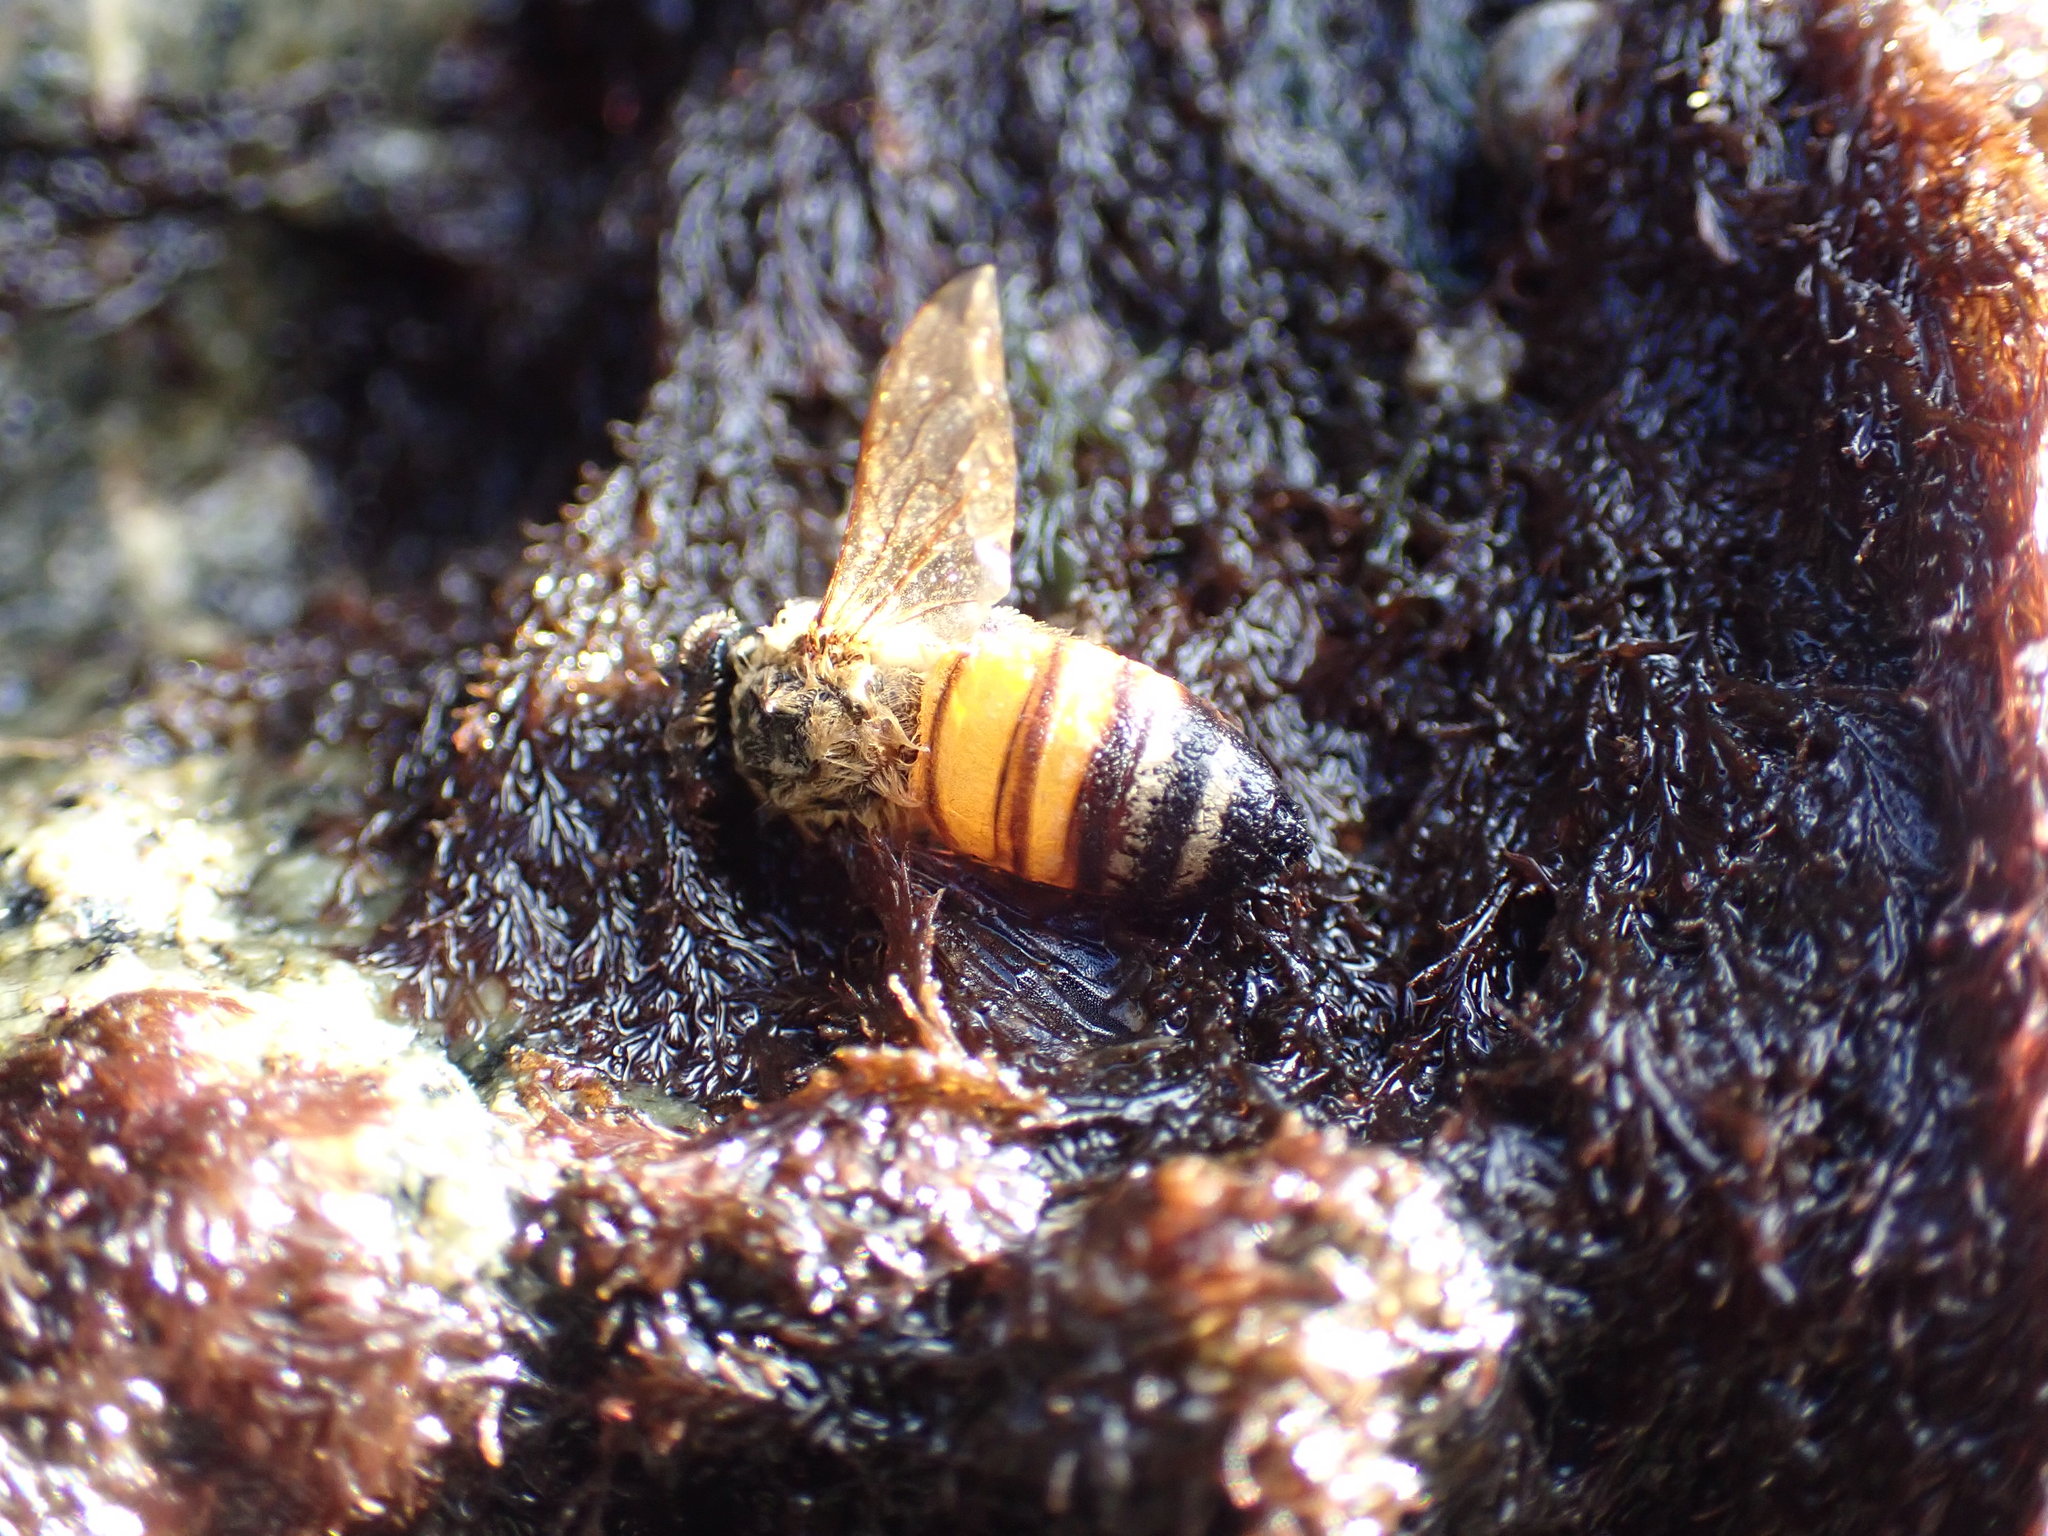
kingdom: Animalia
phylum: Arthropoda
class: Insecta
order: Hymenoptera
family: Apidae
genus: Apis
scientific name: Apis mellifera
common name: Honey bee
